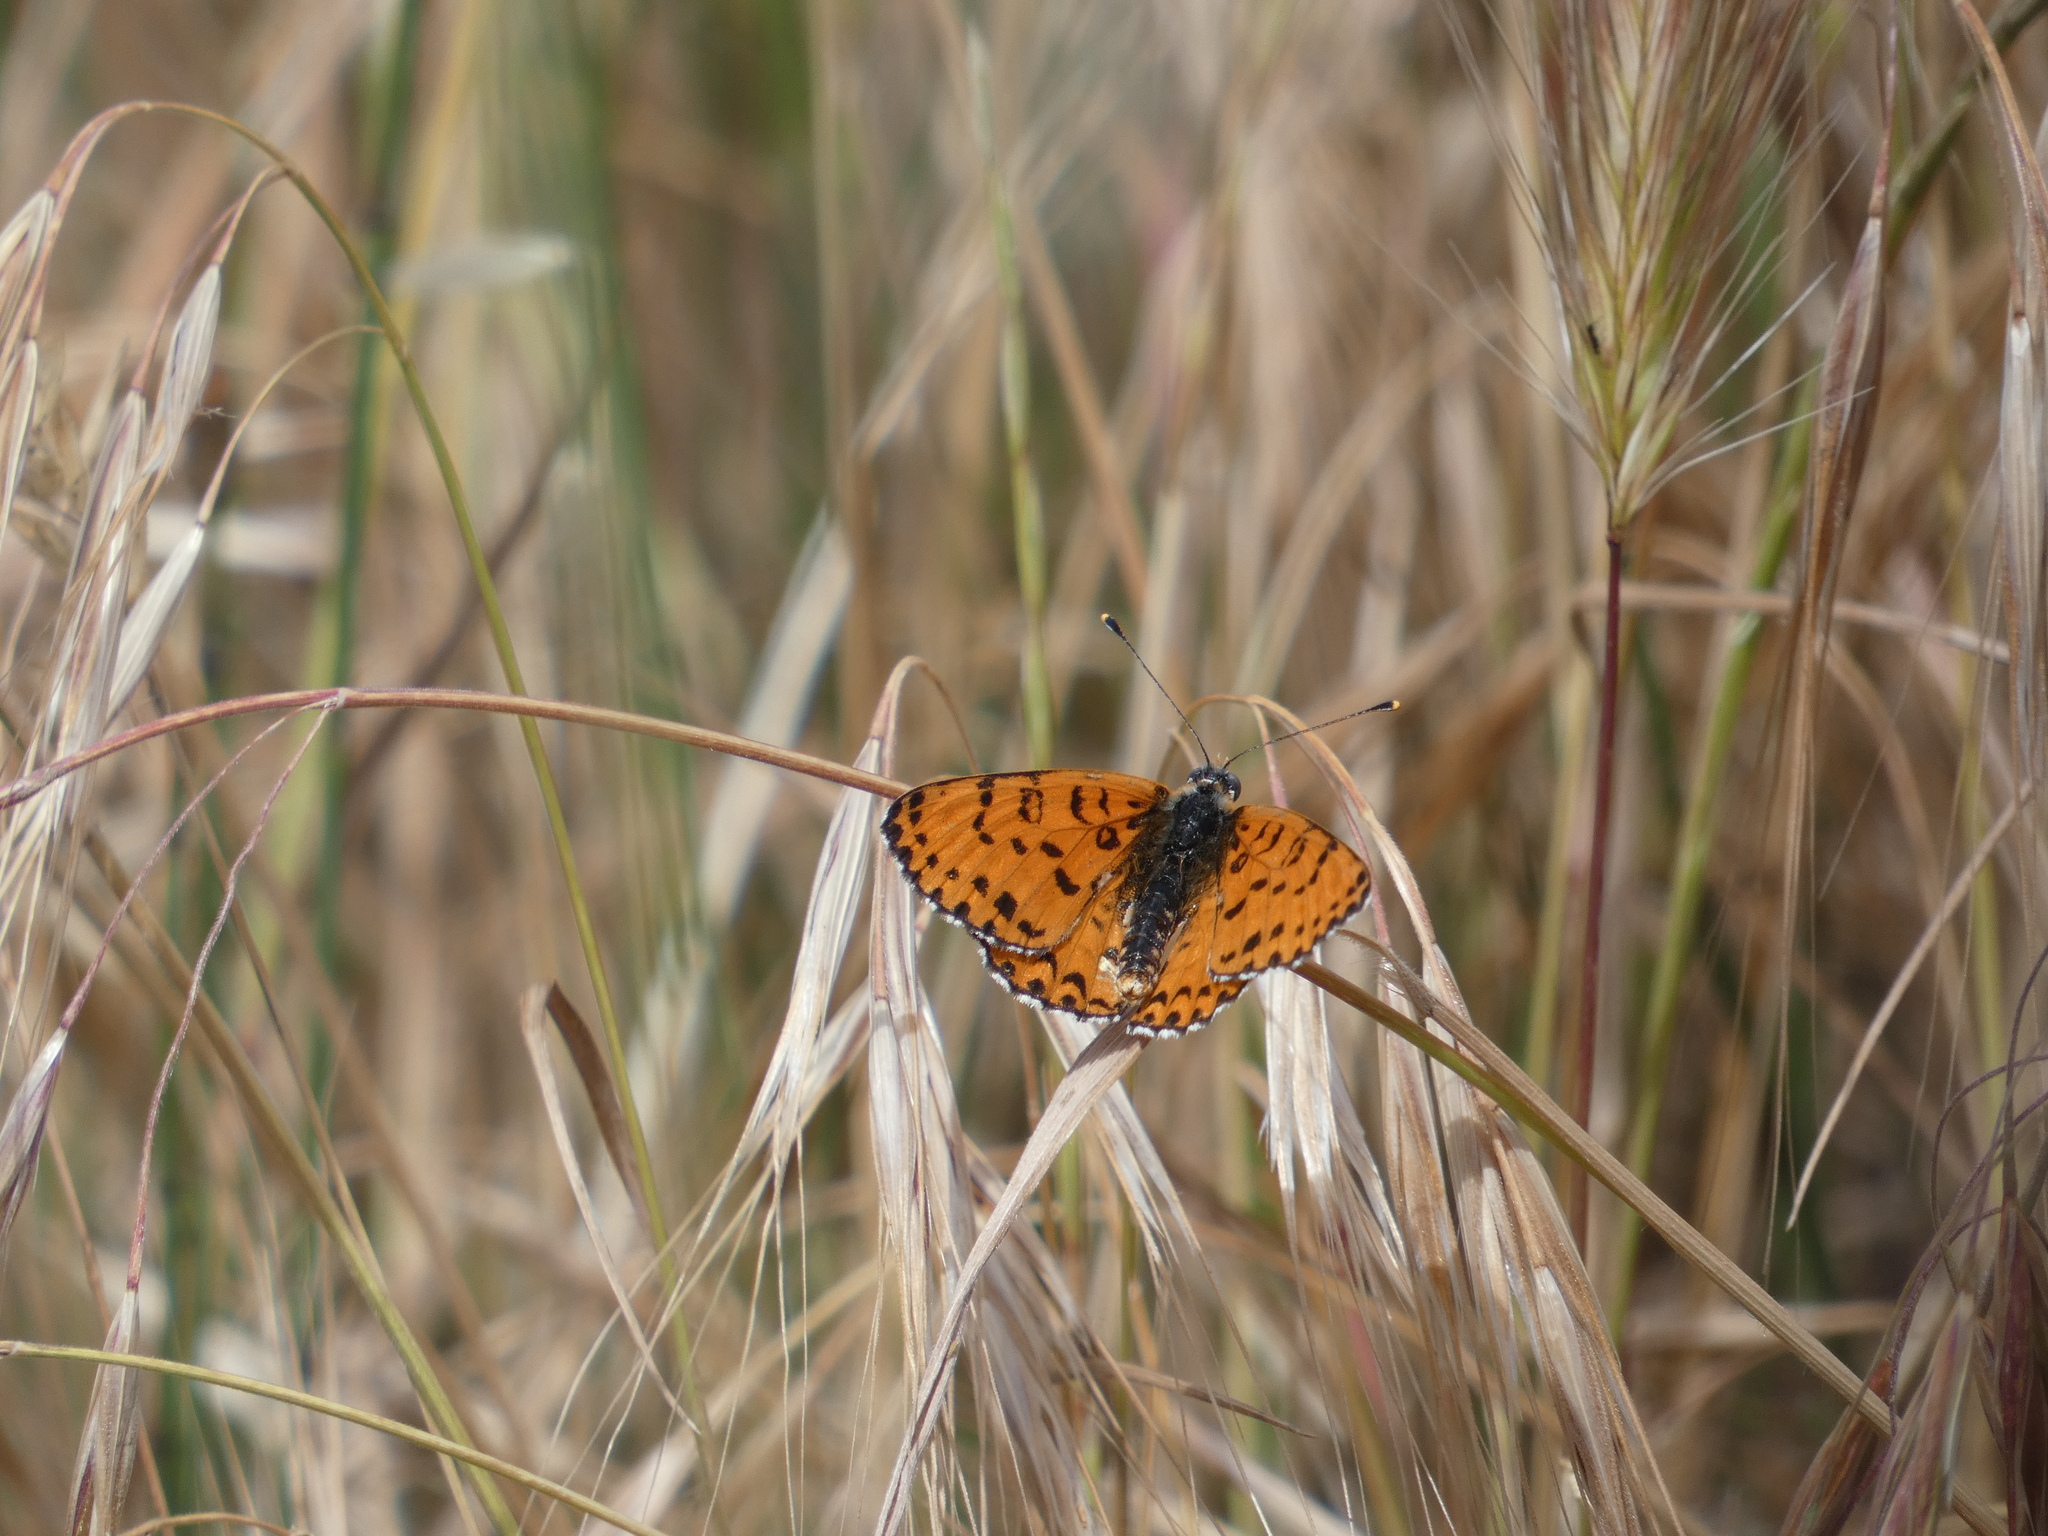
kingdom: Animalia
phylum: Arthropoda
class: Insecta
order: Lepidoptera
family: Nymphalidae
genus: Melitaea
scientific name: Melitaea didyma
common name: Spotted fritillary
